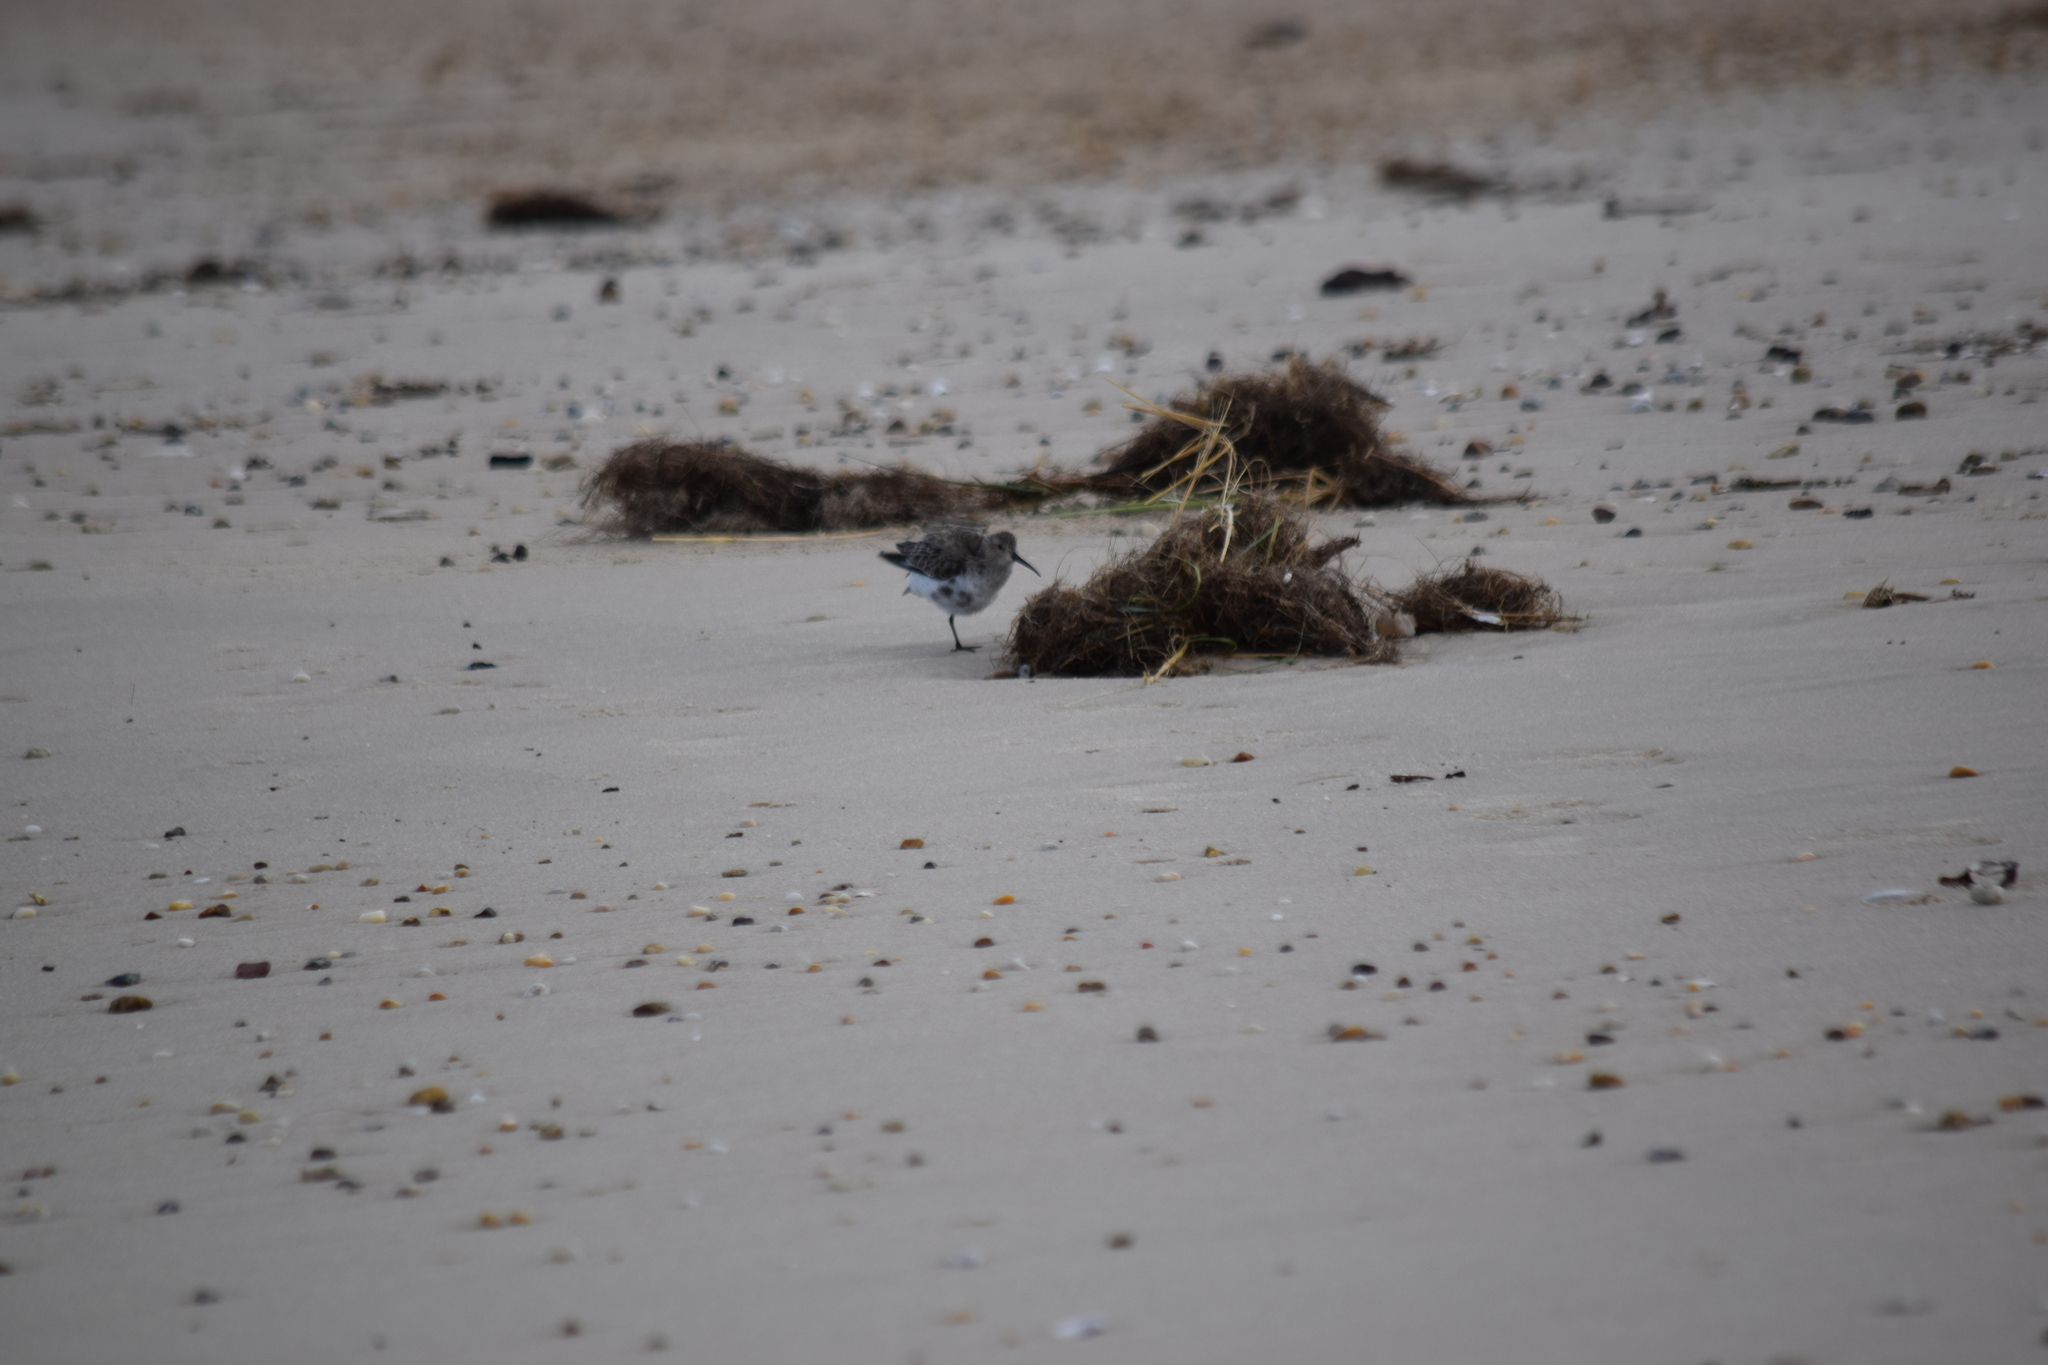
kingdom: Animalia
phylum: Chordata
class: Aves
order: Charadriiformes
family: Scolopacidae
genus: Calidris
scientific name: Calidris alpina
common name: Dunlin
